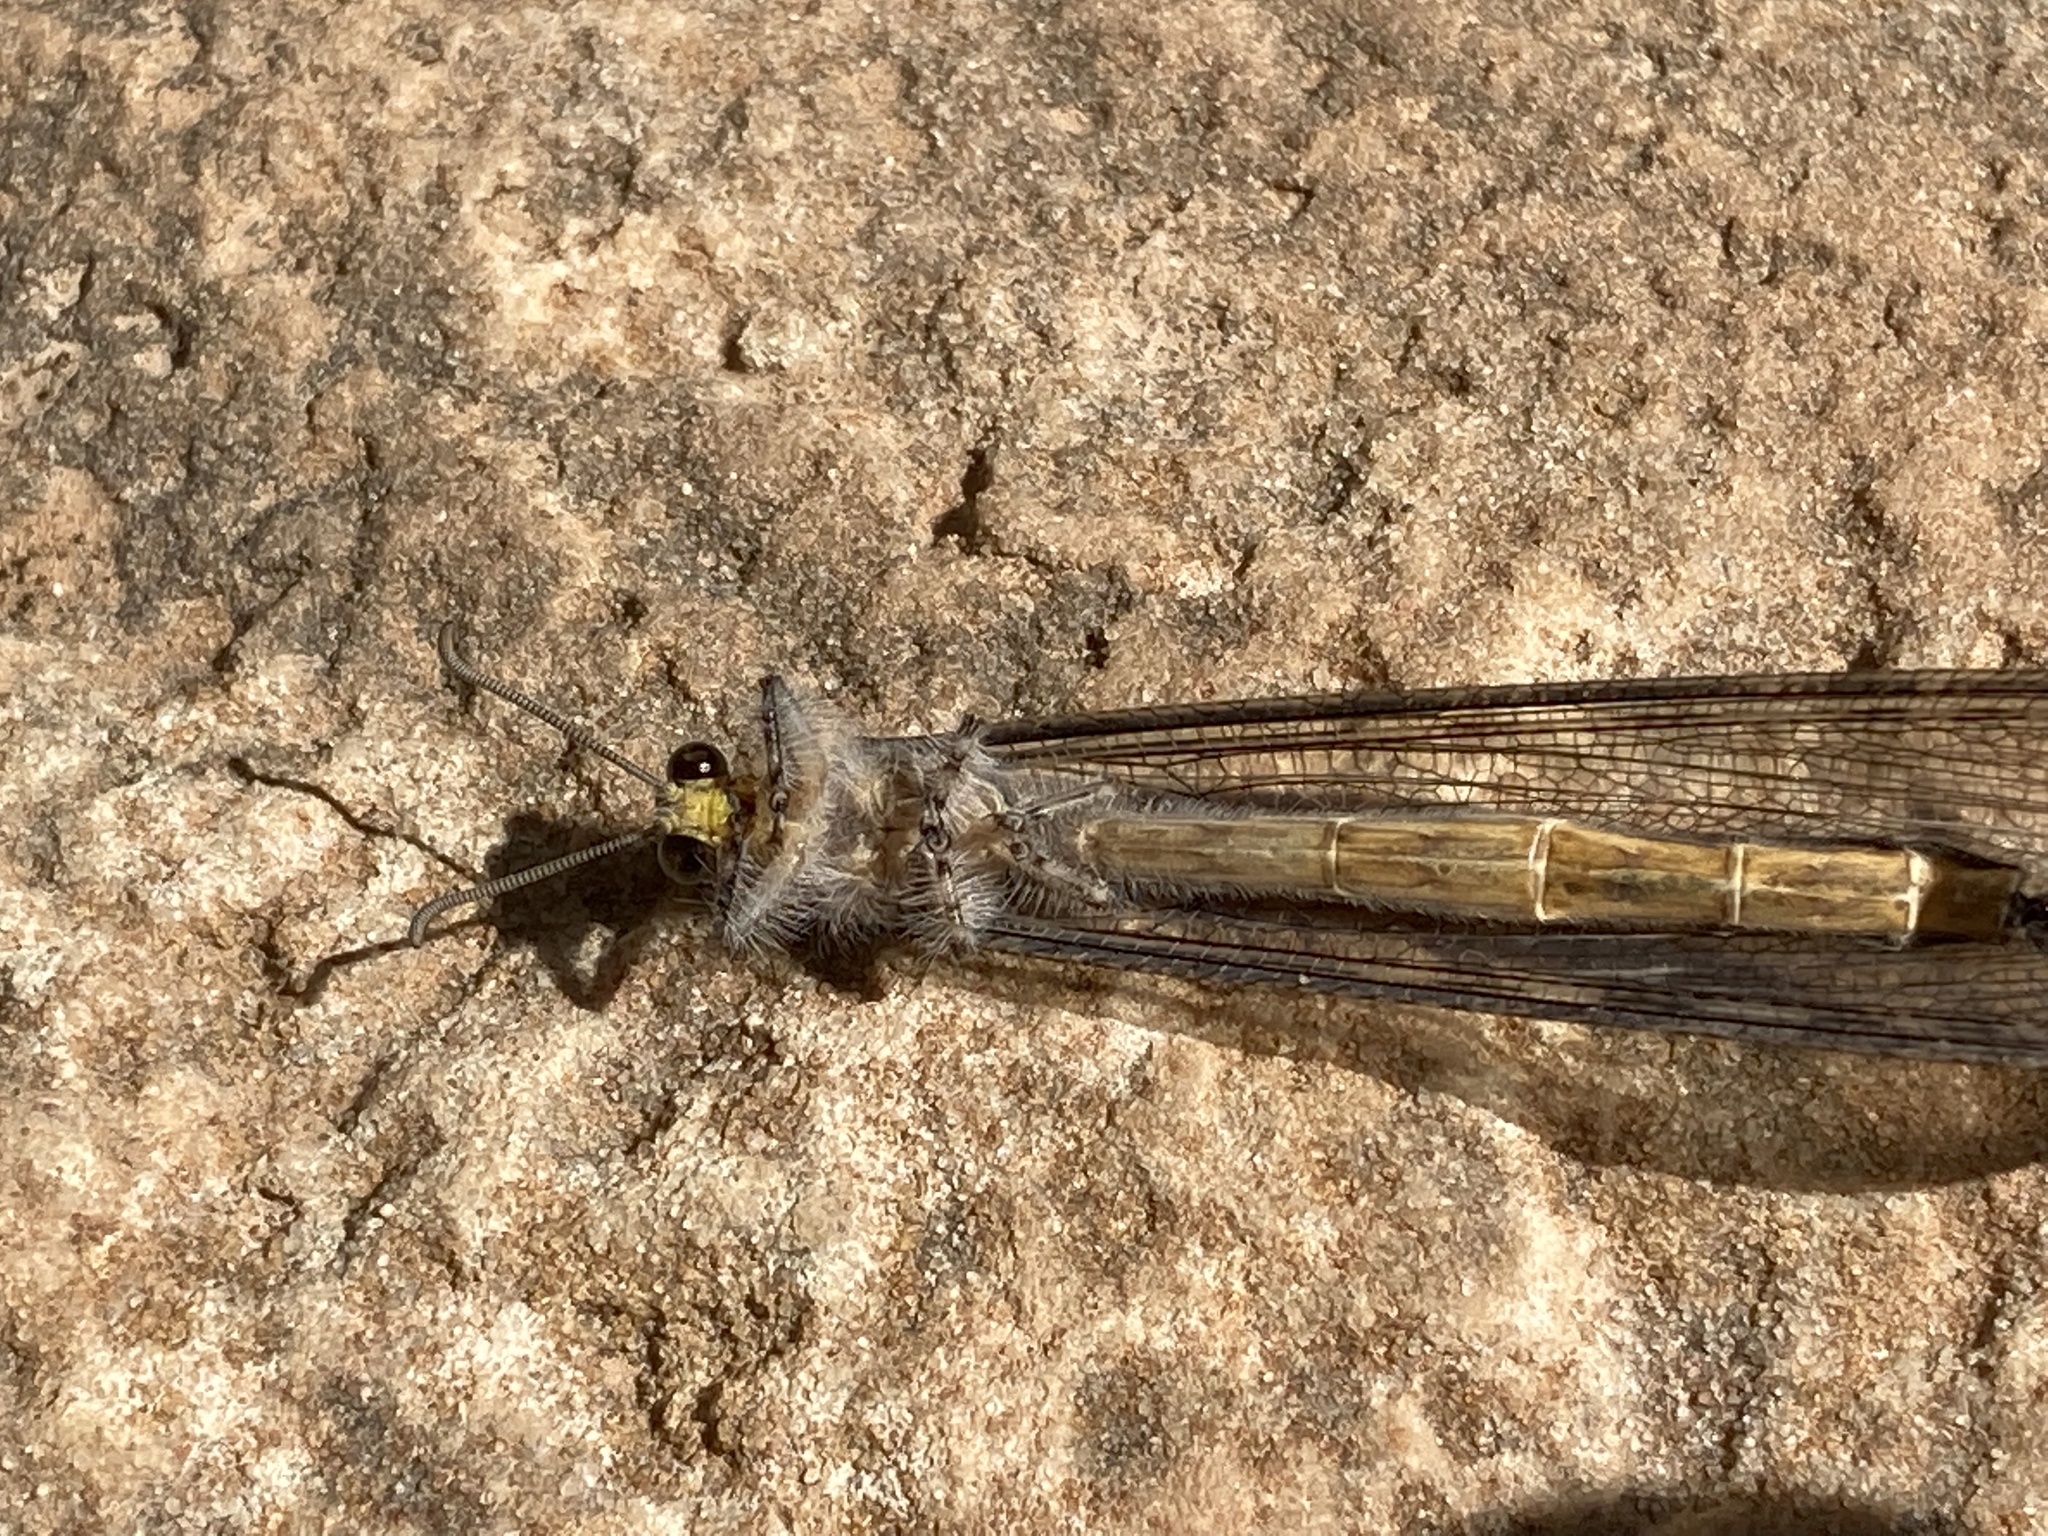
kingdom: Animalia
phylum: Arthropoda
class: Insecta
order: Neuroptera
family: Myrmeleontidae
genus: Vella
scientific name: Vella fallax
